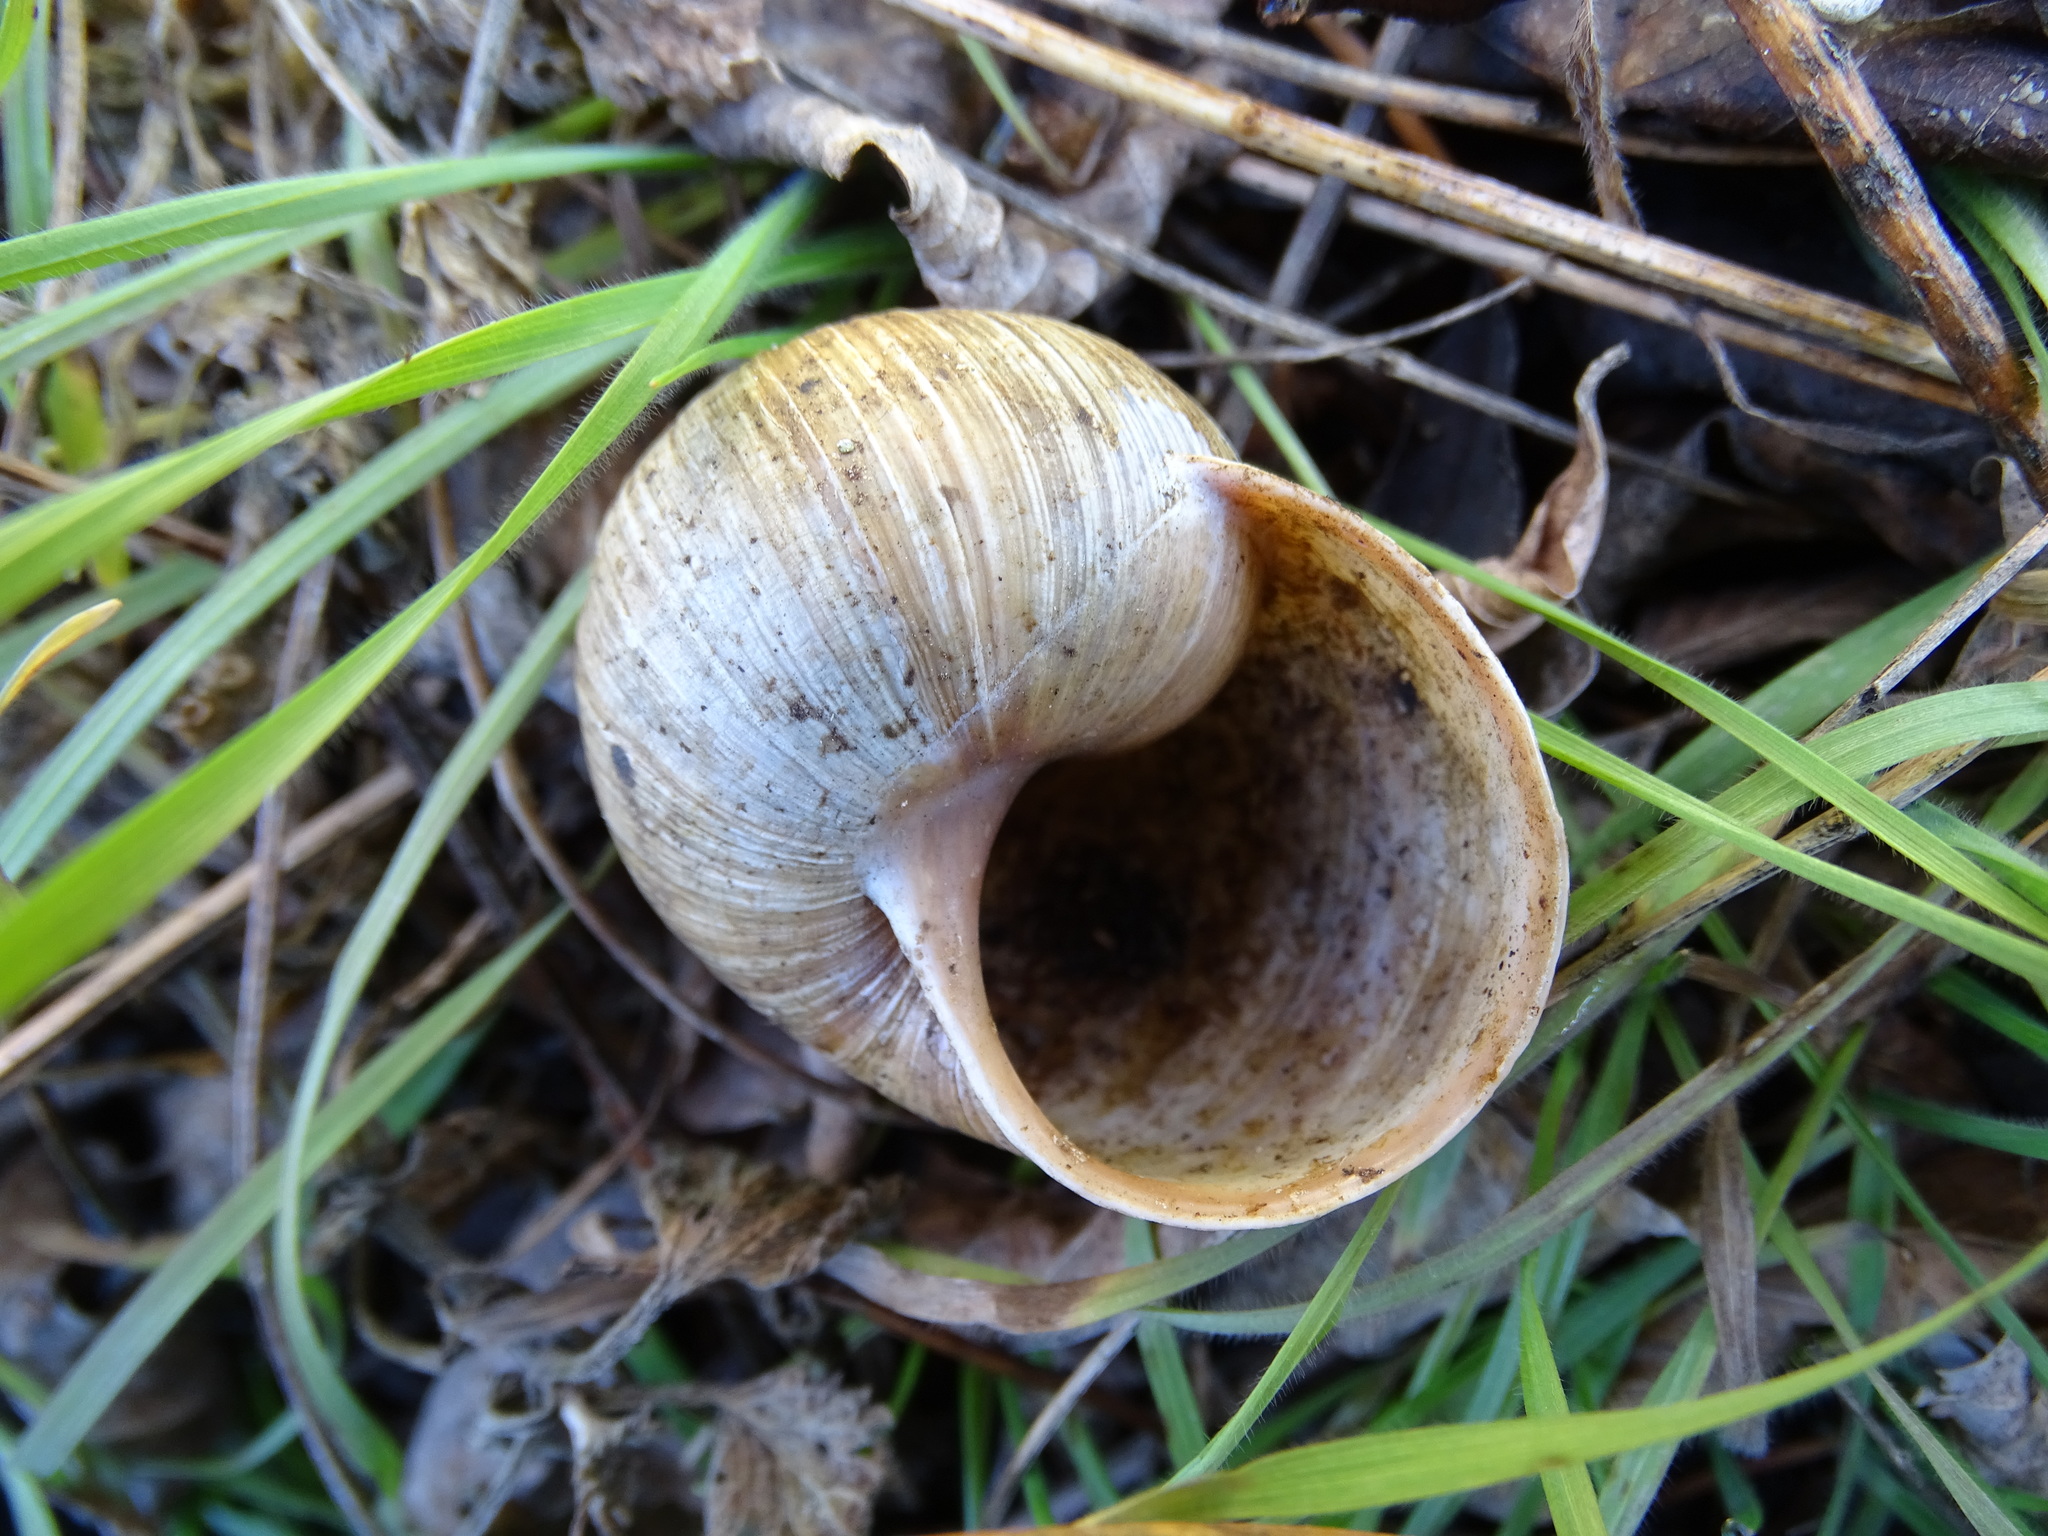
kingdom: Animalia
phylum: Mollusca
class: Gastropoda
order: Stylommatophora
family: Helicidae
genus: Helix
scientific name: Helix pomatia
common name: Roman snail
